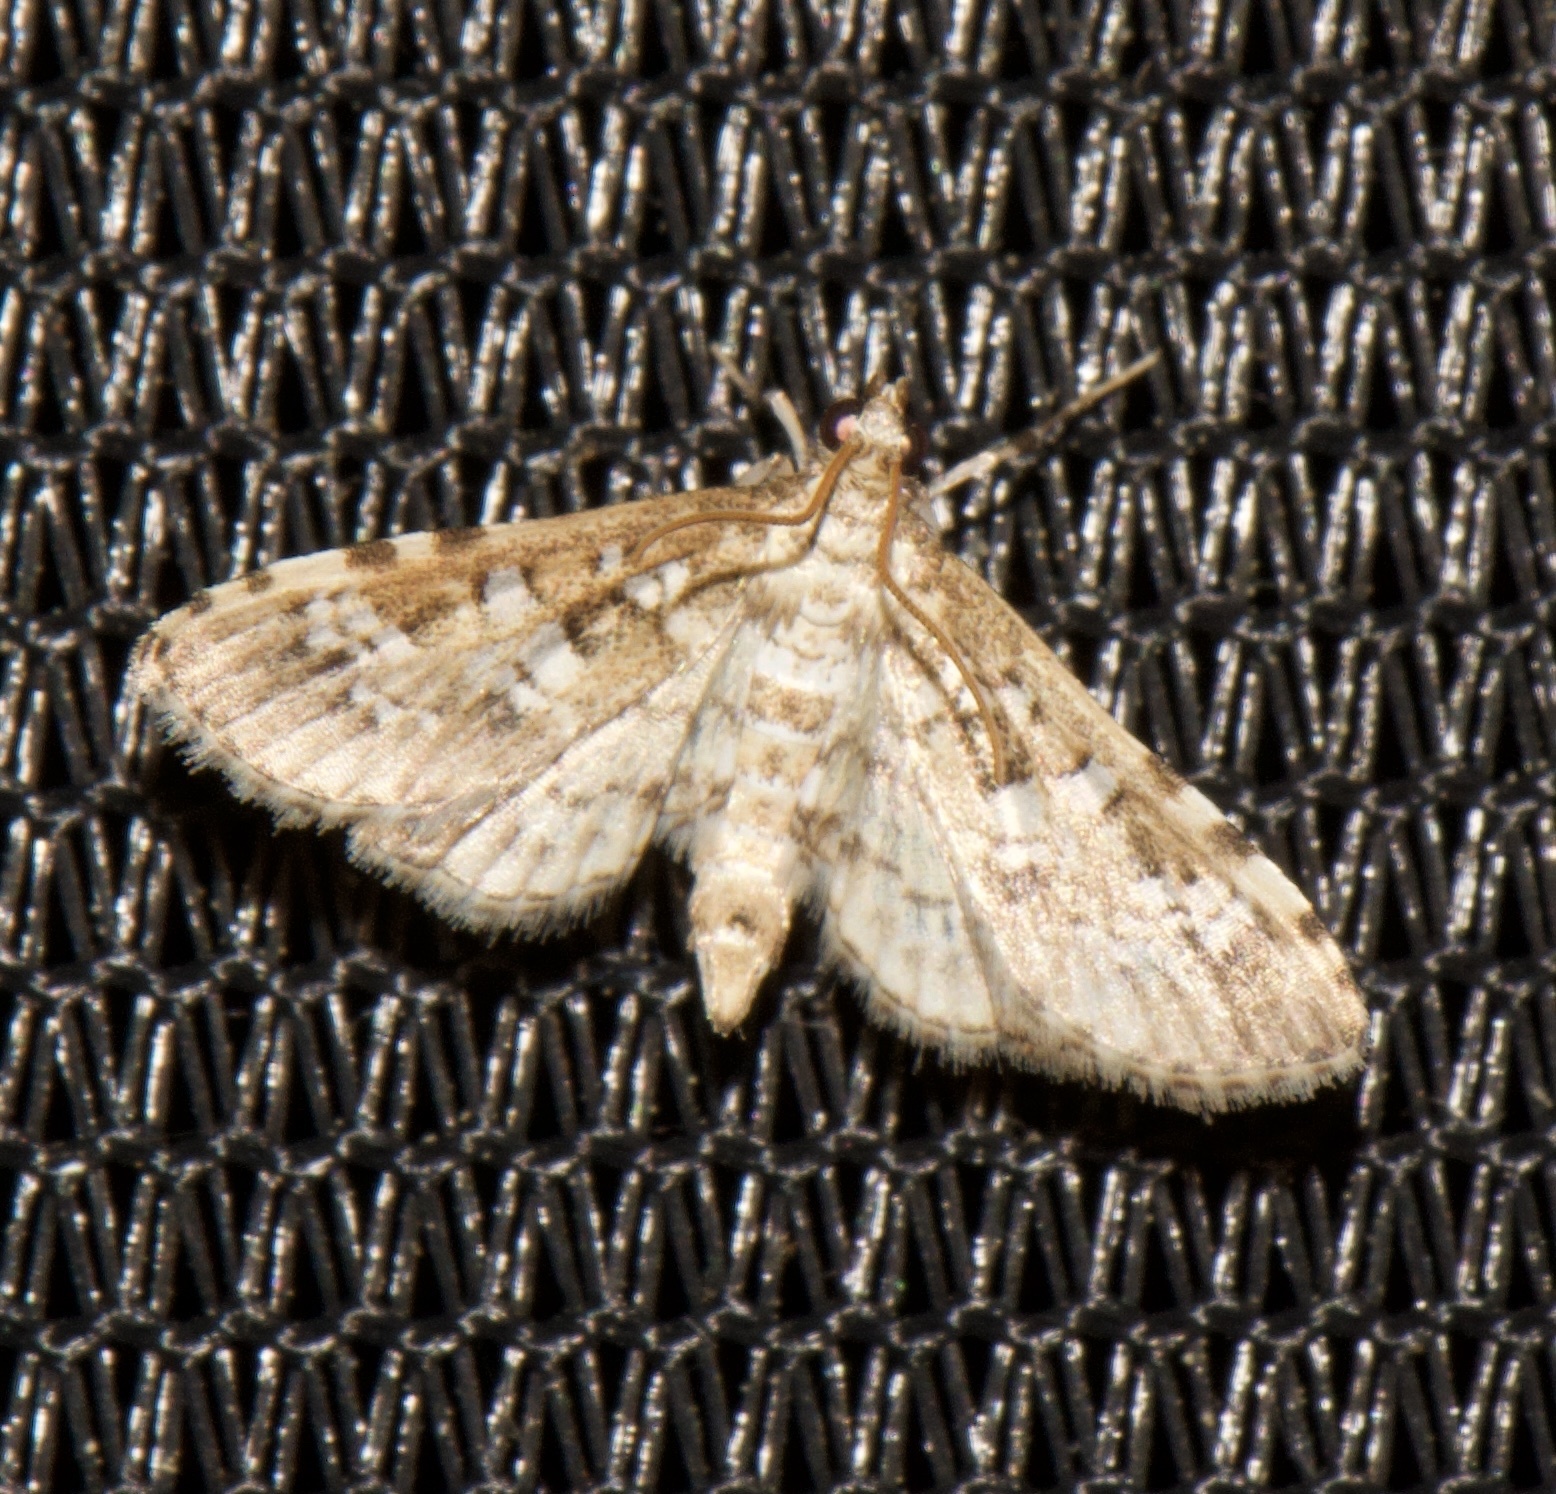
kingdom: Animalia
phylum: Arthropoda
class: Insecta
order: Lepidoptera
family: Crambidae
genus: Samea
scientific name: Samea multiplicalis
